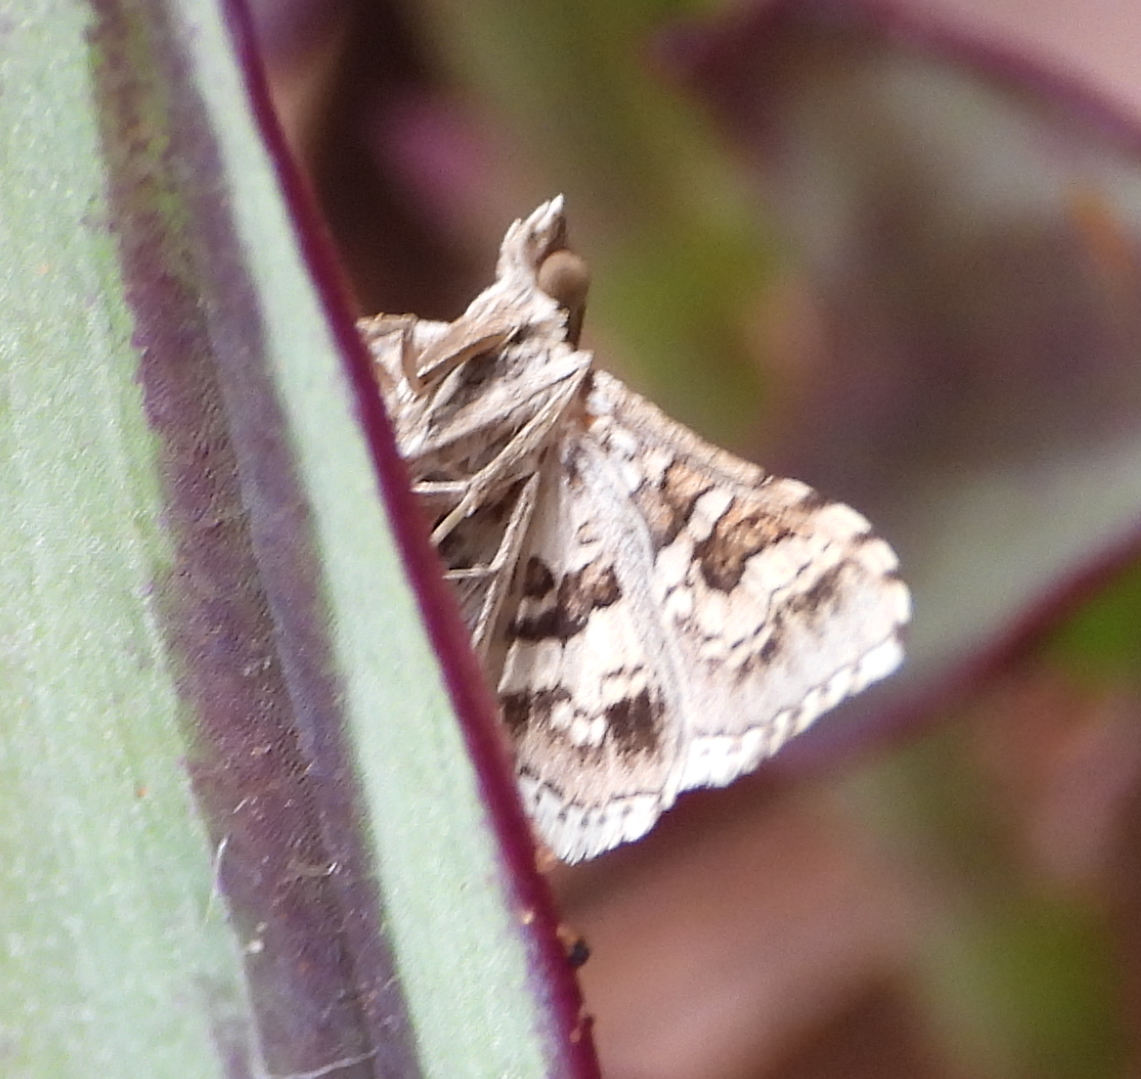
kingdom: Animalia
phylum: Arthropoda
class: Insecta
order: Lepidoptera
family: Crambidae
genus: Sameodes
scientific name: Sameodes cancellalis
